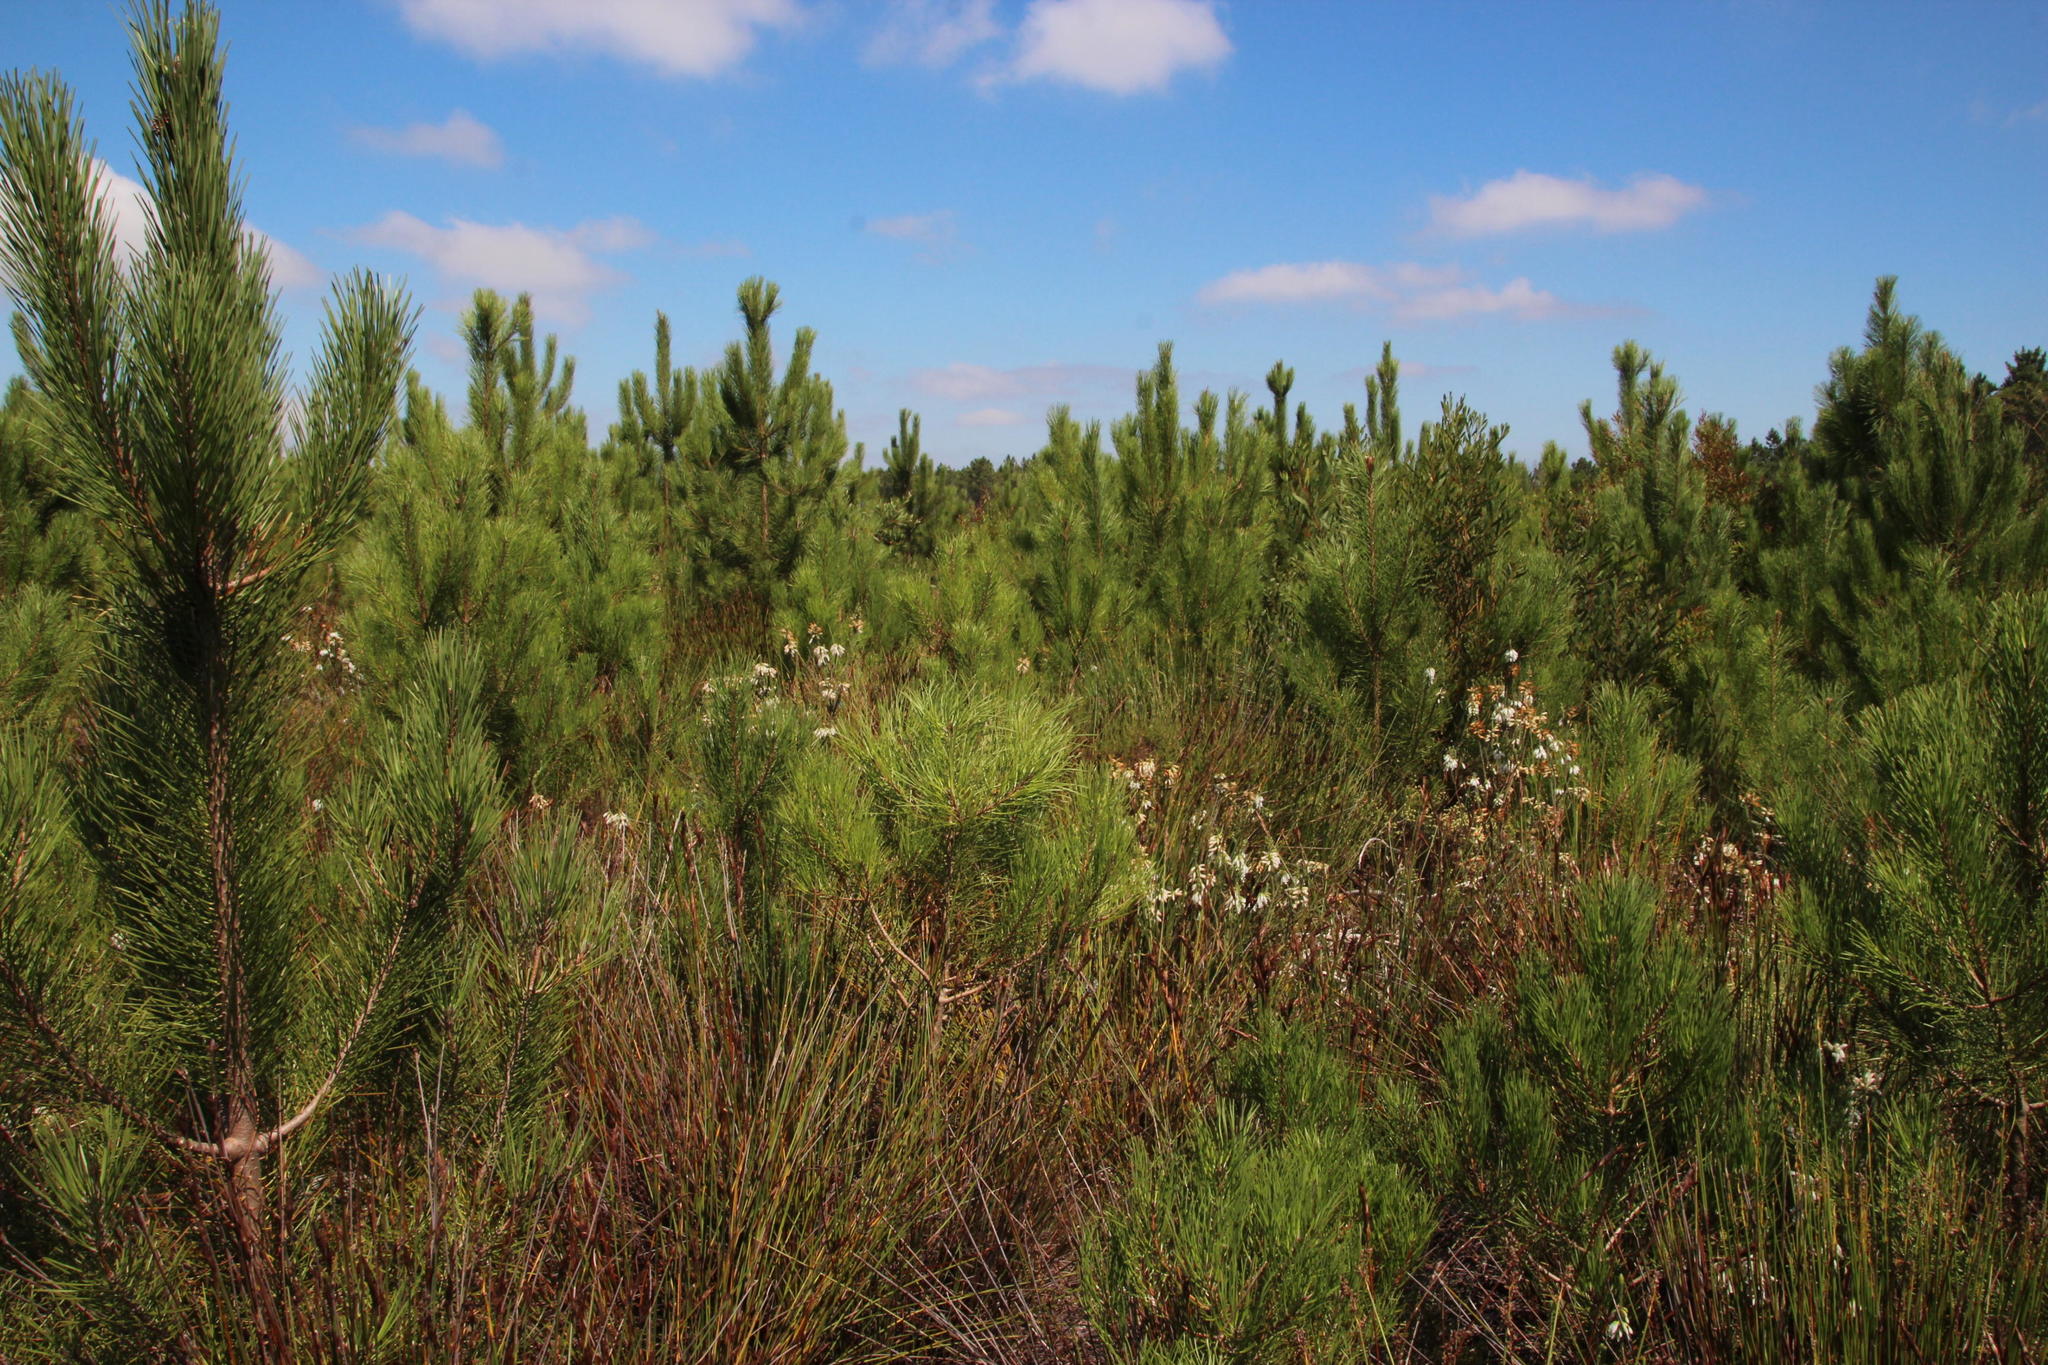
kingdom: Plantae
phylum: Tracheophyta
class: Pinopsida
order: Pinales
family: Pinaceae
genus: Pinus
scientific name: Pinus pinaster
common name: Maritime pine
